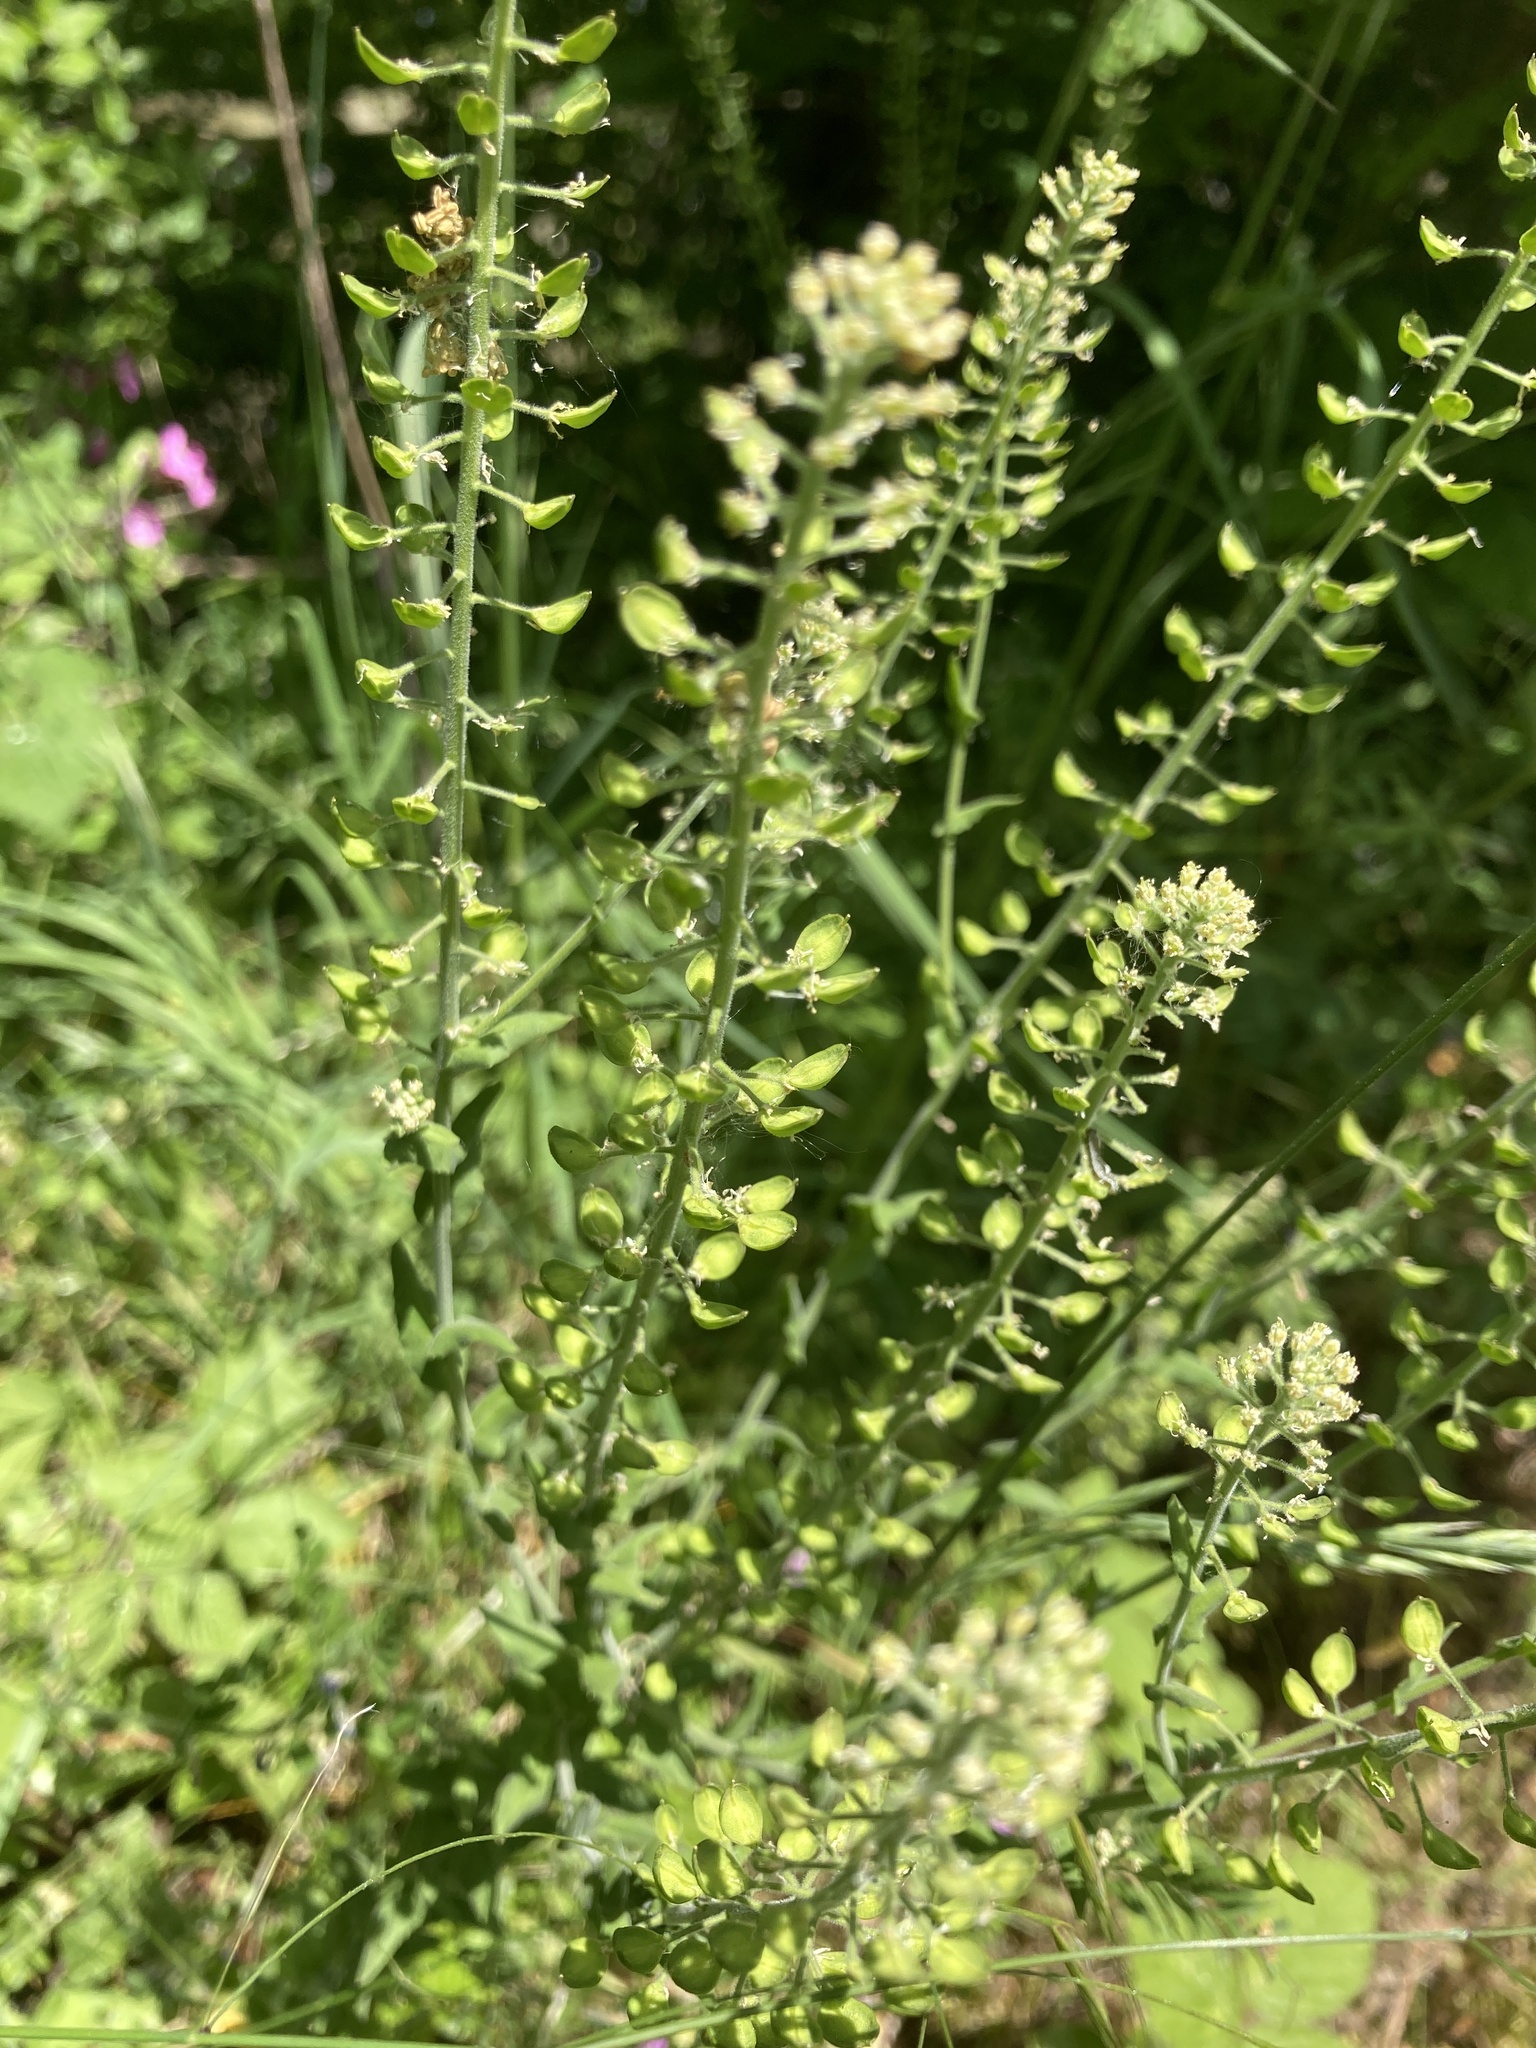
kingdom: Plantae
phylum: Tracheophyta
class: Magnoliopsida
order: Brassicales
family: Brassicaceae
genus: Lepidium
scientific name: Lepidium campestre
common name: Field pepperwort
